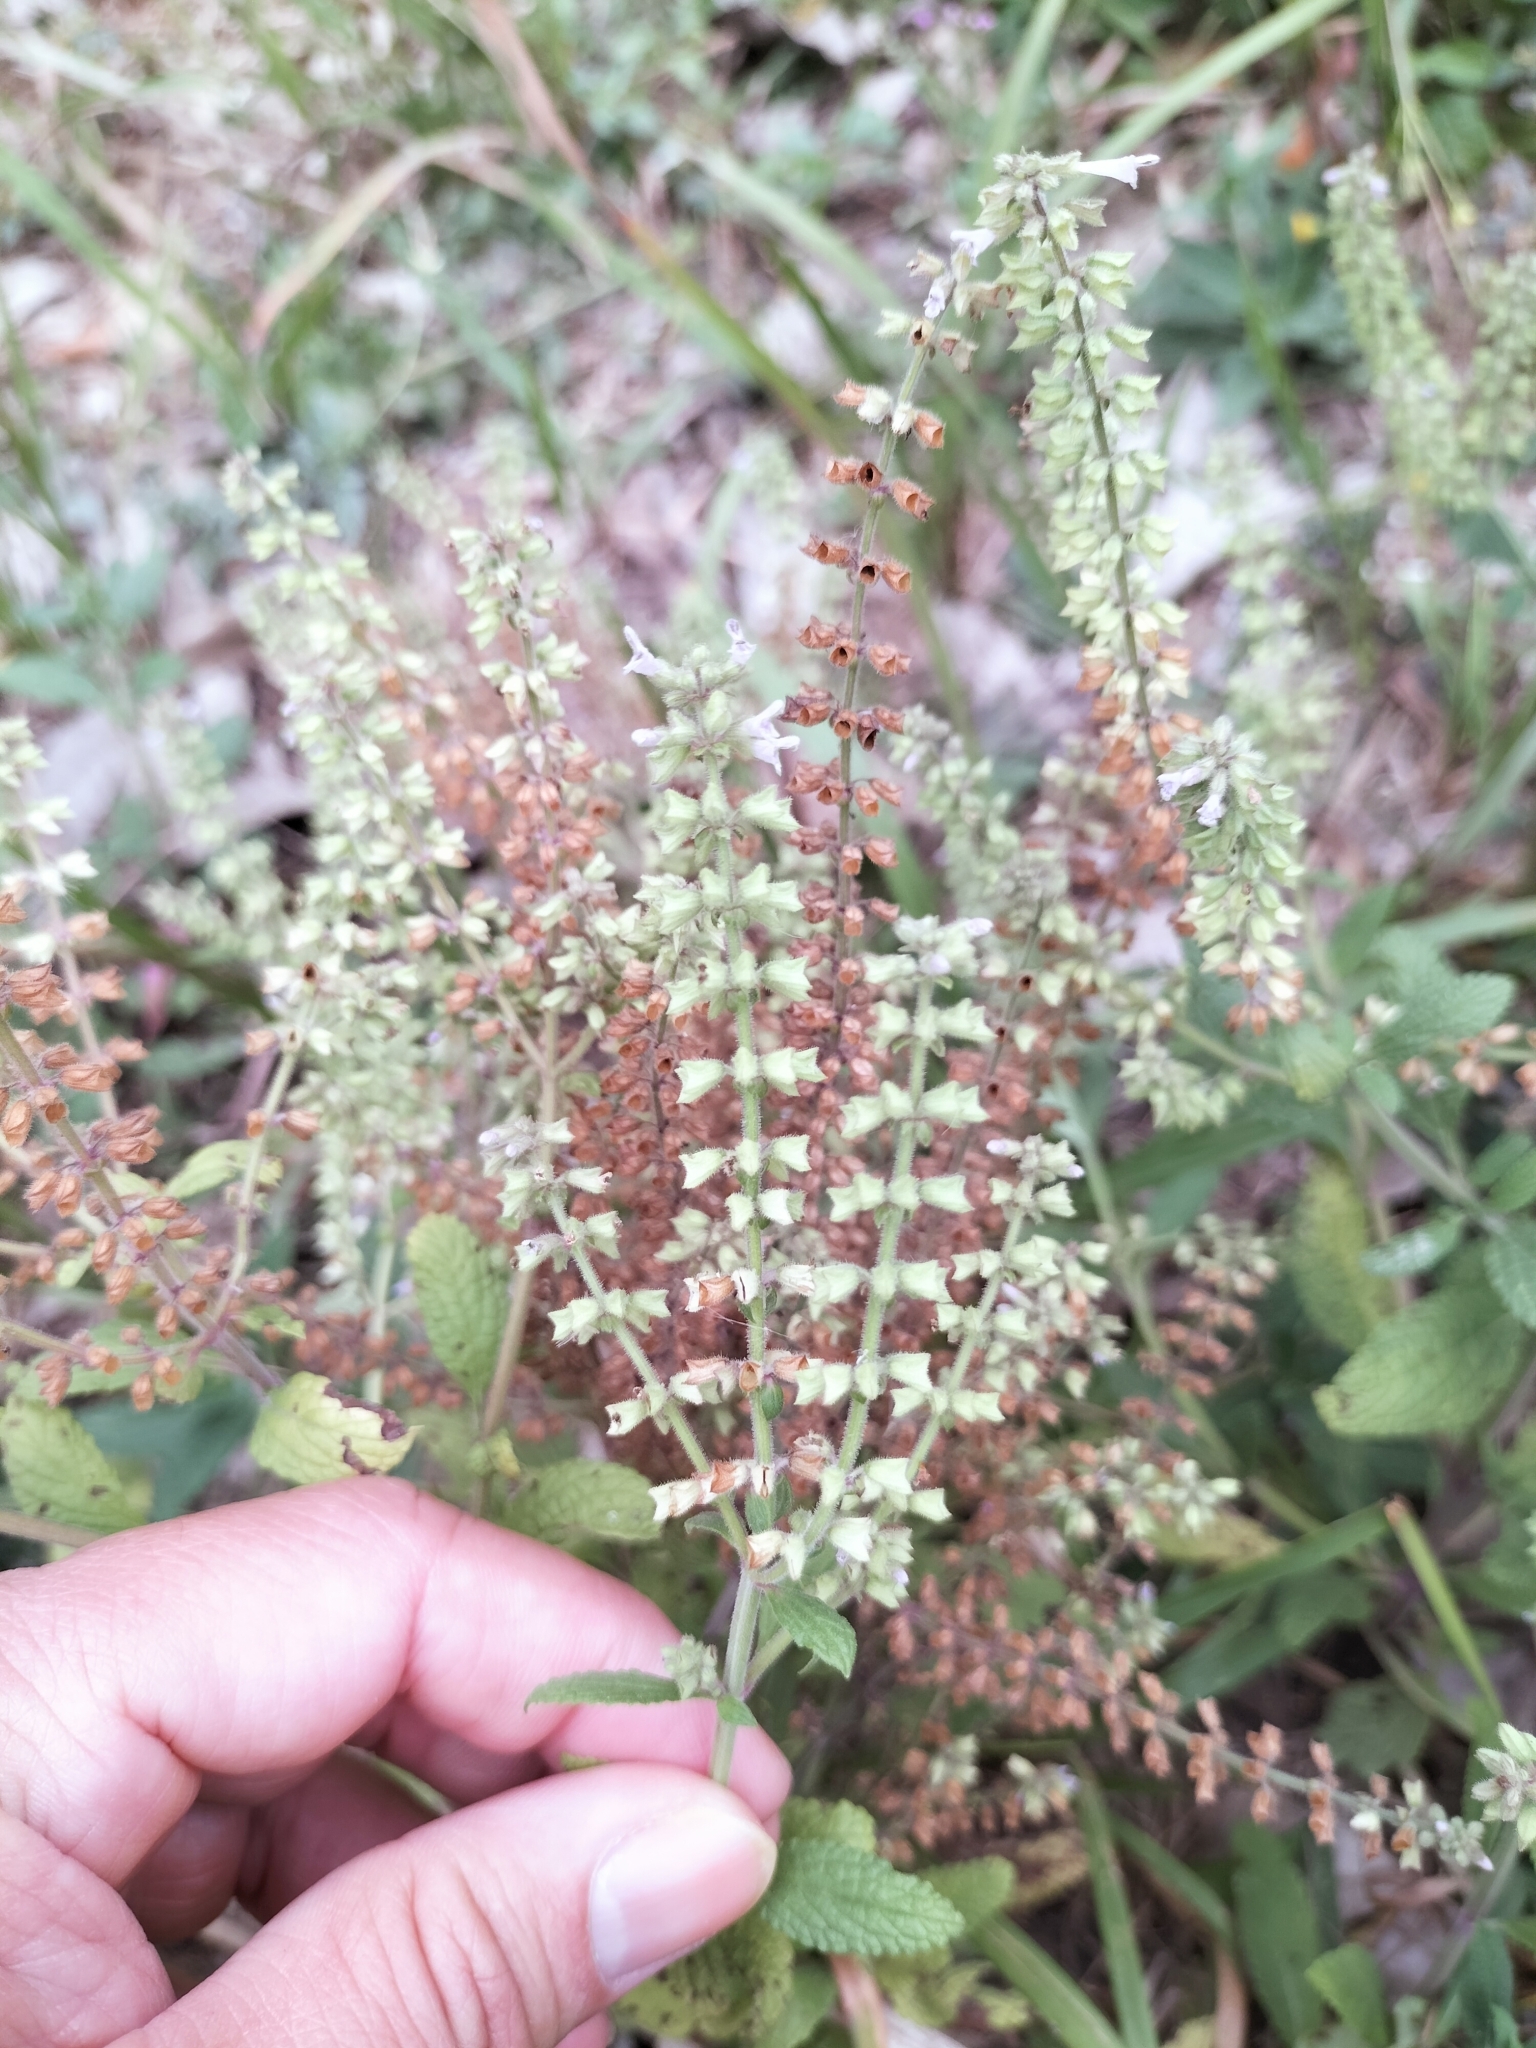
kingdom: Plantae
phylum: Tracheophyta
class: Magnoliopsida
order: Lamiales
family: Lamiaceae
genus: Salvia
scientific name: Salvia plebeia
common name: Australian sage
